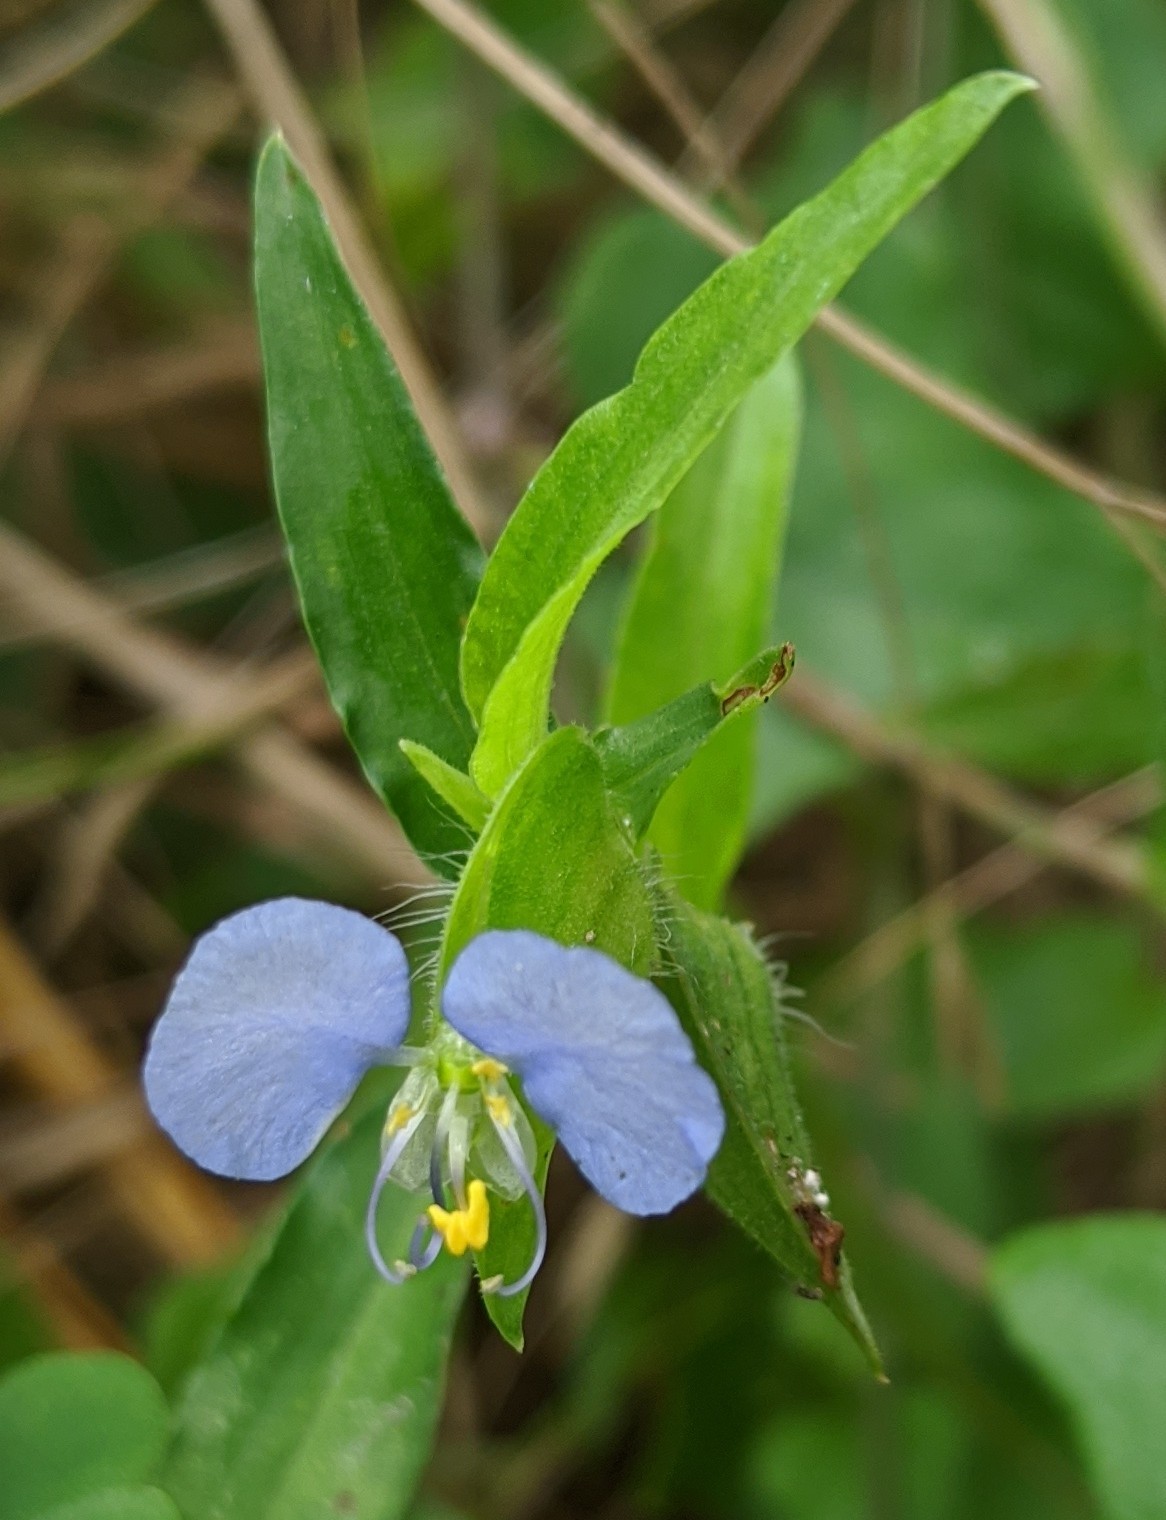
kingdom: Plantae
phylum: Tracheophyta
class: Liliopsida
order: Commelinales
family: Commelinaceae
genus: Commelina
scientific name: Commelina erecta
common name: Blousel blommetjie
